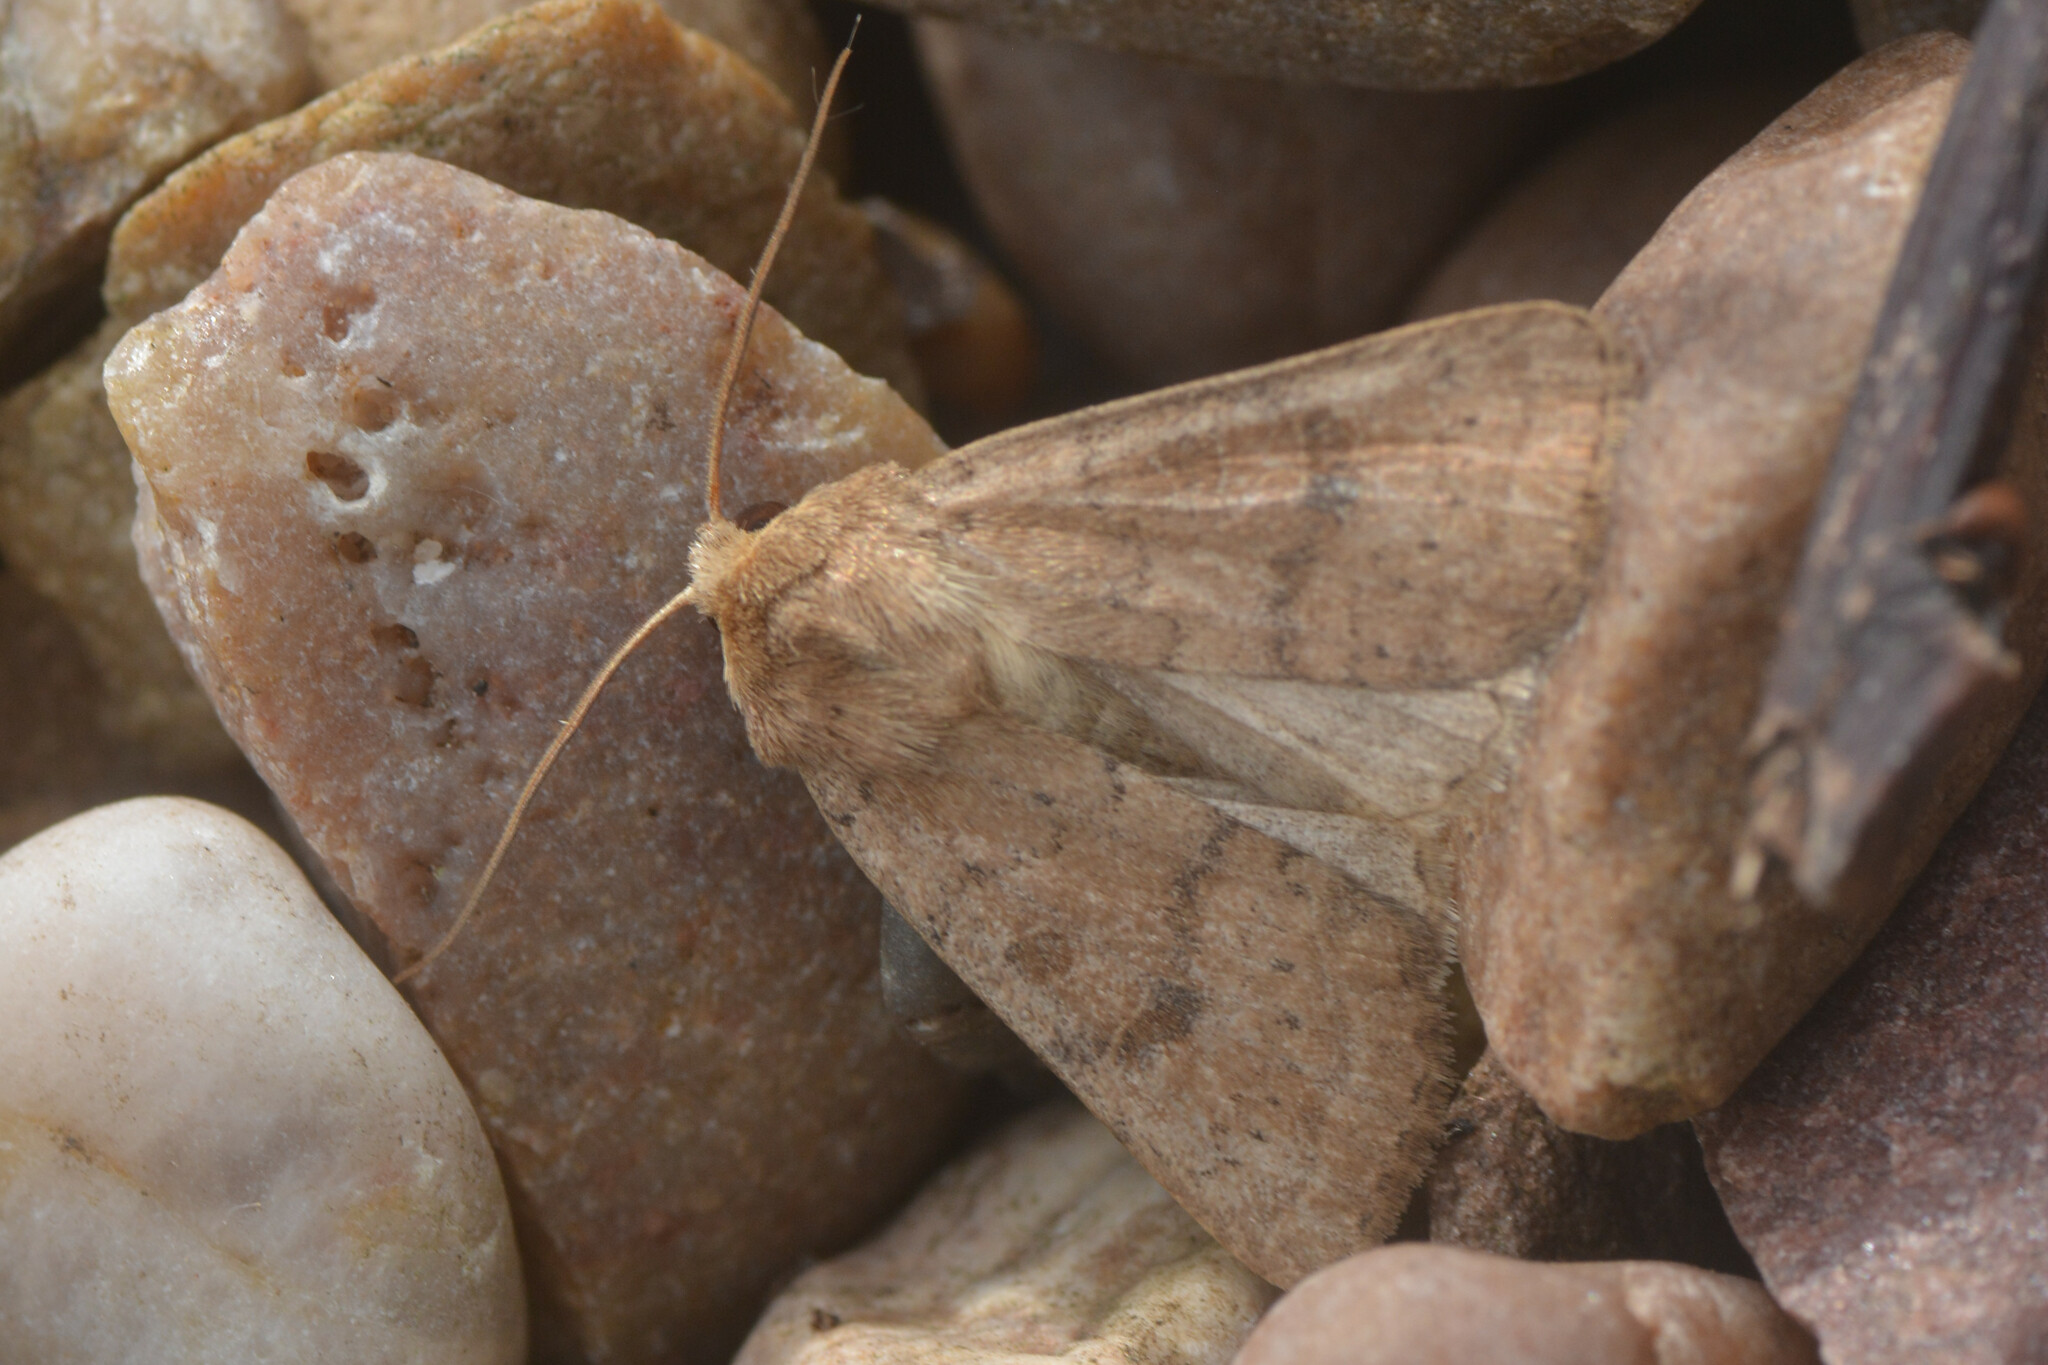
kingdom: Animalia
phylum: Arthropoda
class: Insecta
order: Lepidoptera
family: Noctuidae
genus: Hoplodrina
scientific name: Hoplodrina octogenaria
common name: Uncertain
